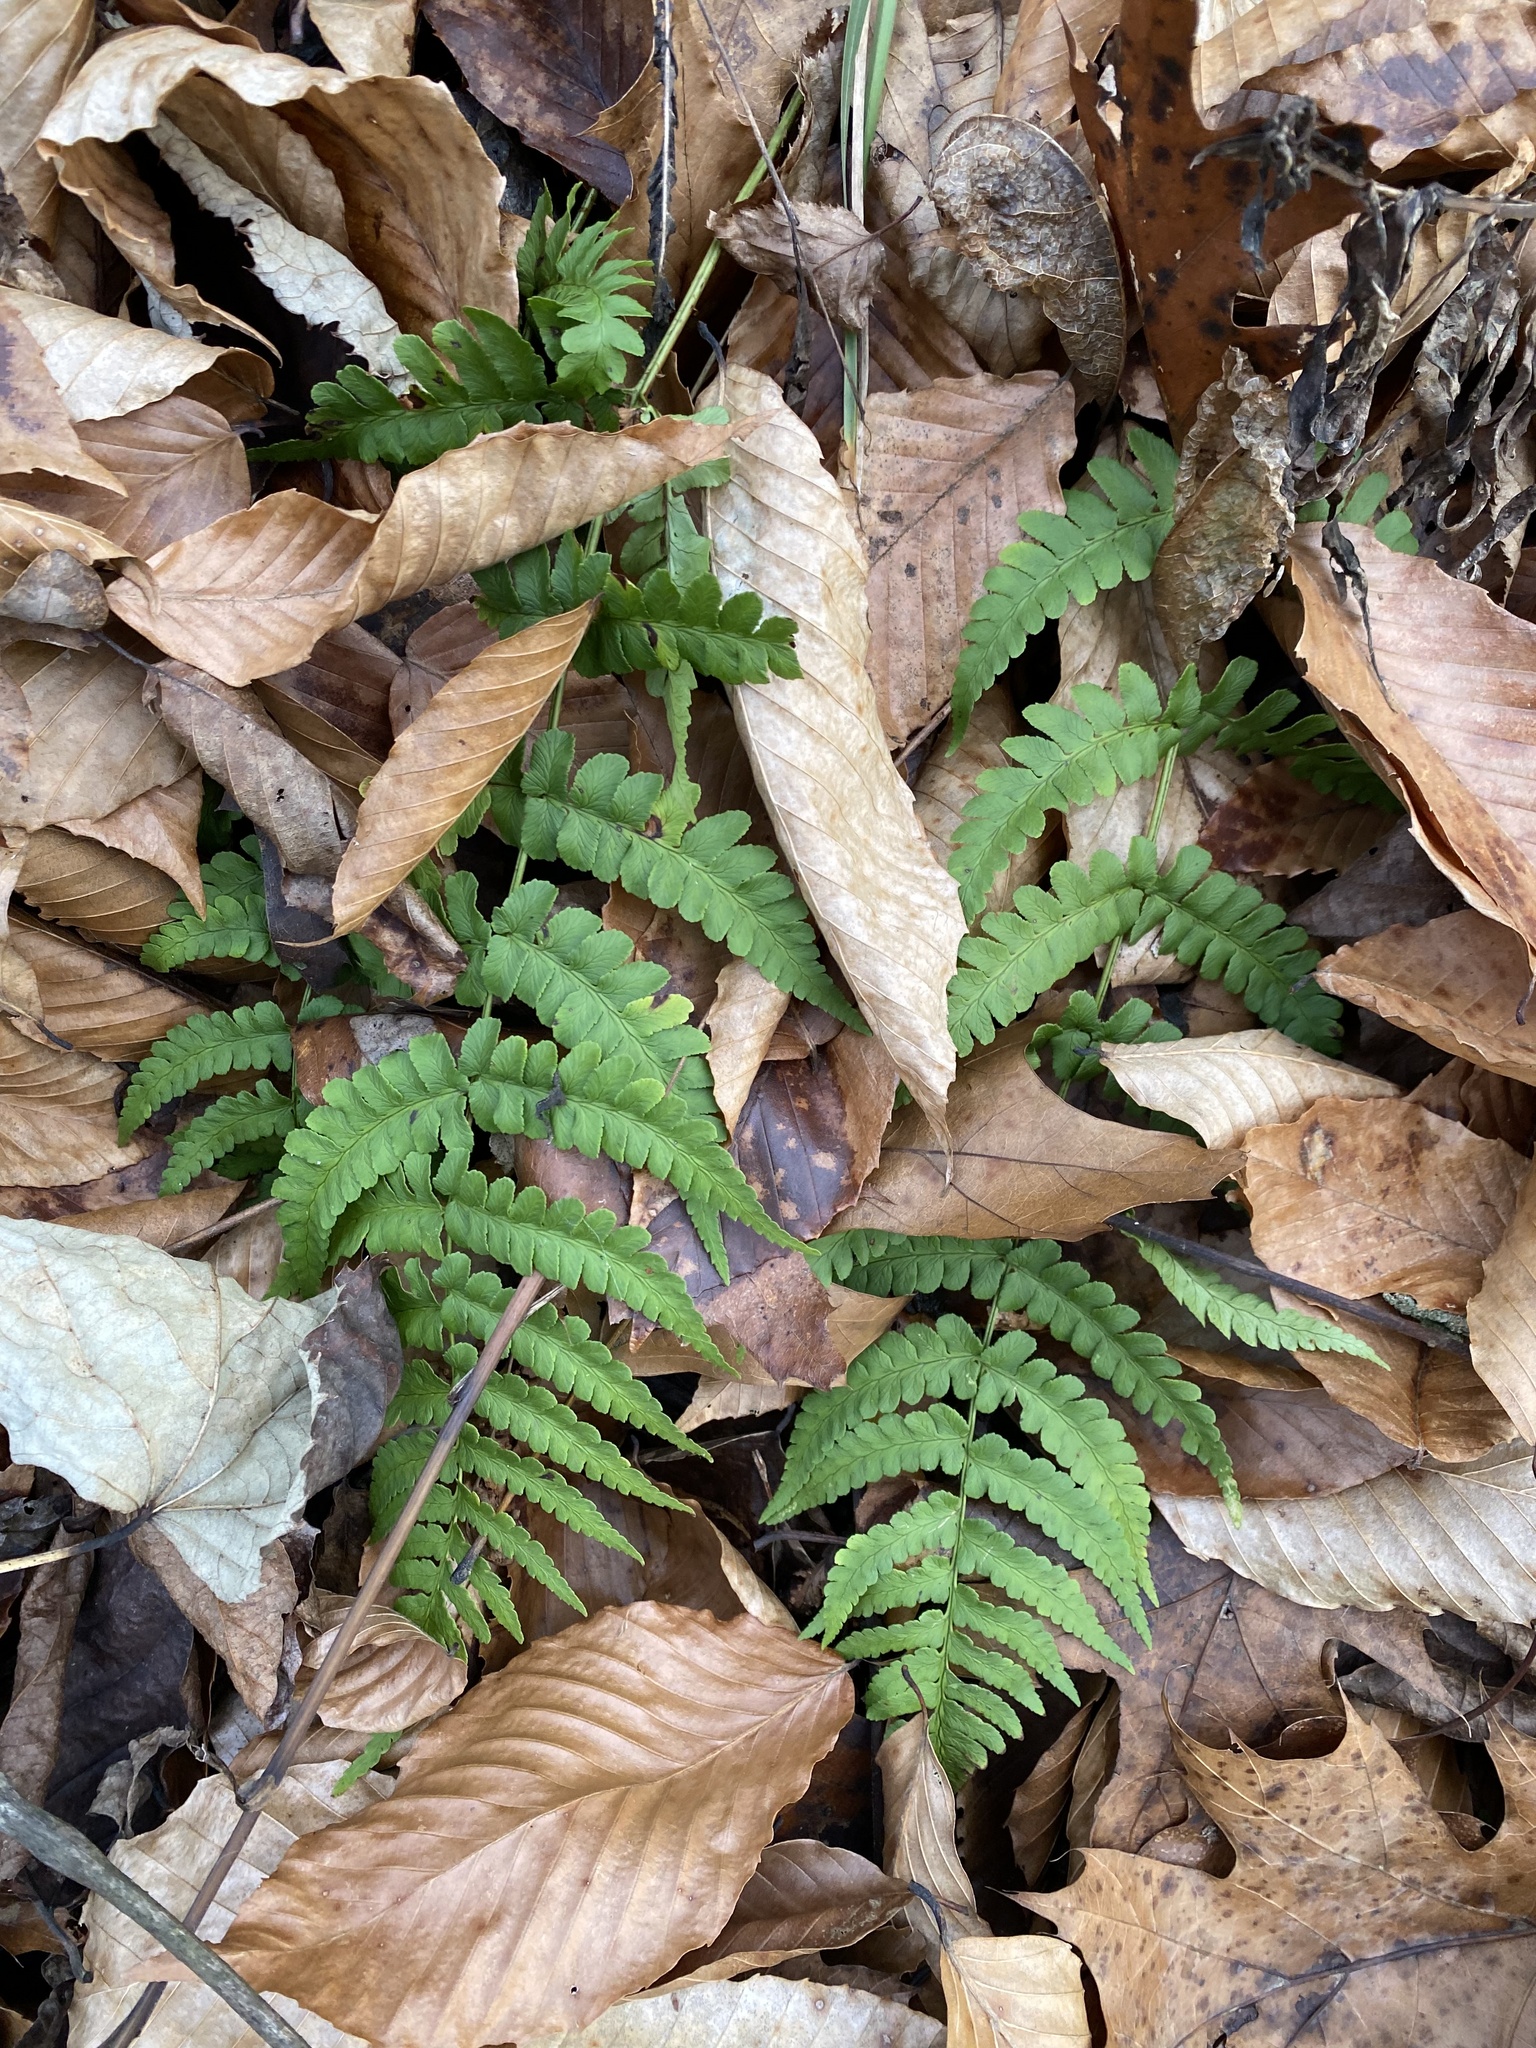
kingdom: Plantae
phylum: Tracheophyta
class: Polypodiopsida
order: Polypodiales
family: Dryopteridaceae
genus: Dryopteris
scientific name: Dryopteris marginalis
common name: Marginal wood fern
